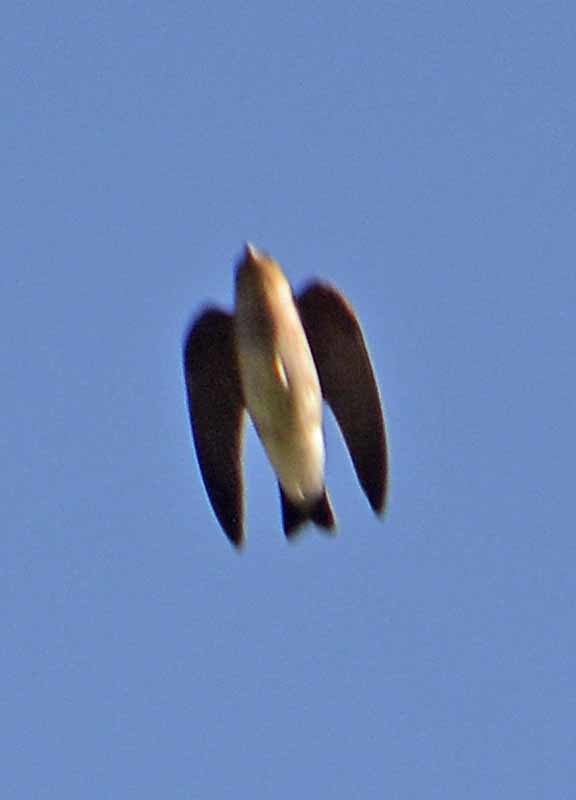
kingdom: Animalia
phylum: Chordata
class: Aves
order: Passeriformes
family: Hirundinidae
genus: Stelgidopteryx
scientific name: Stelgidopteryx serripennis
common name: Northern rough-winged swallow
